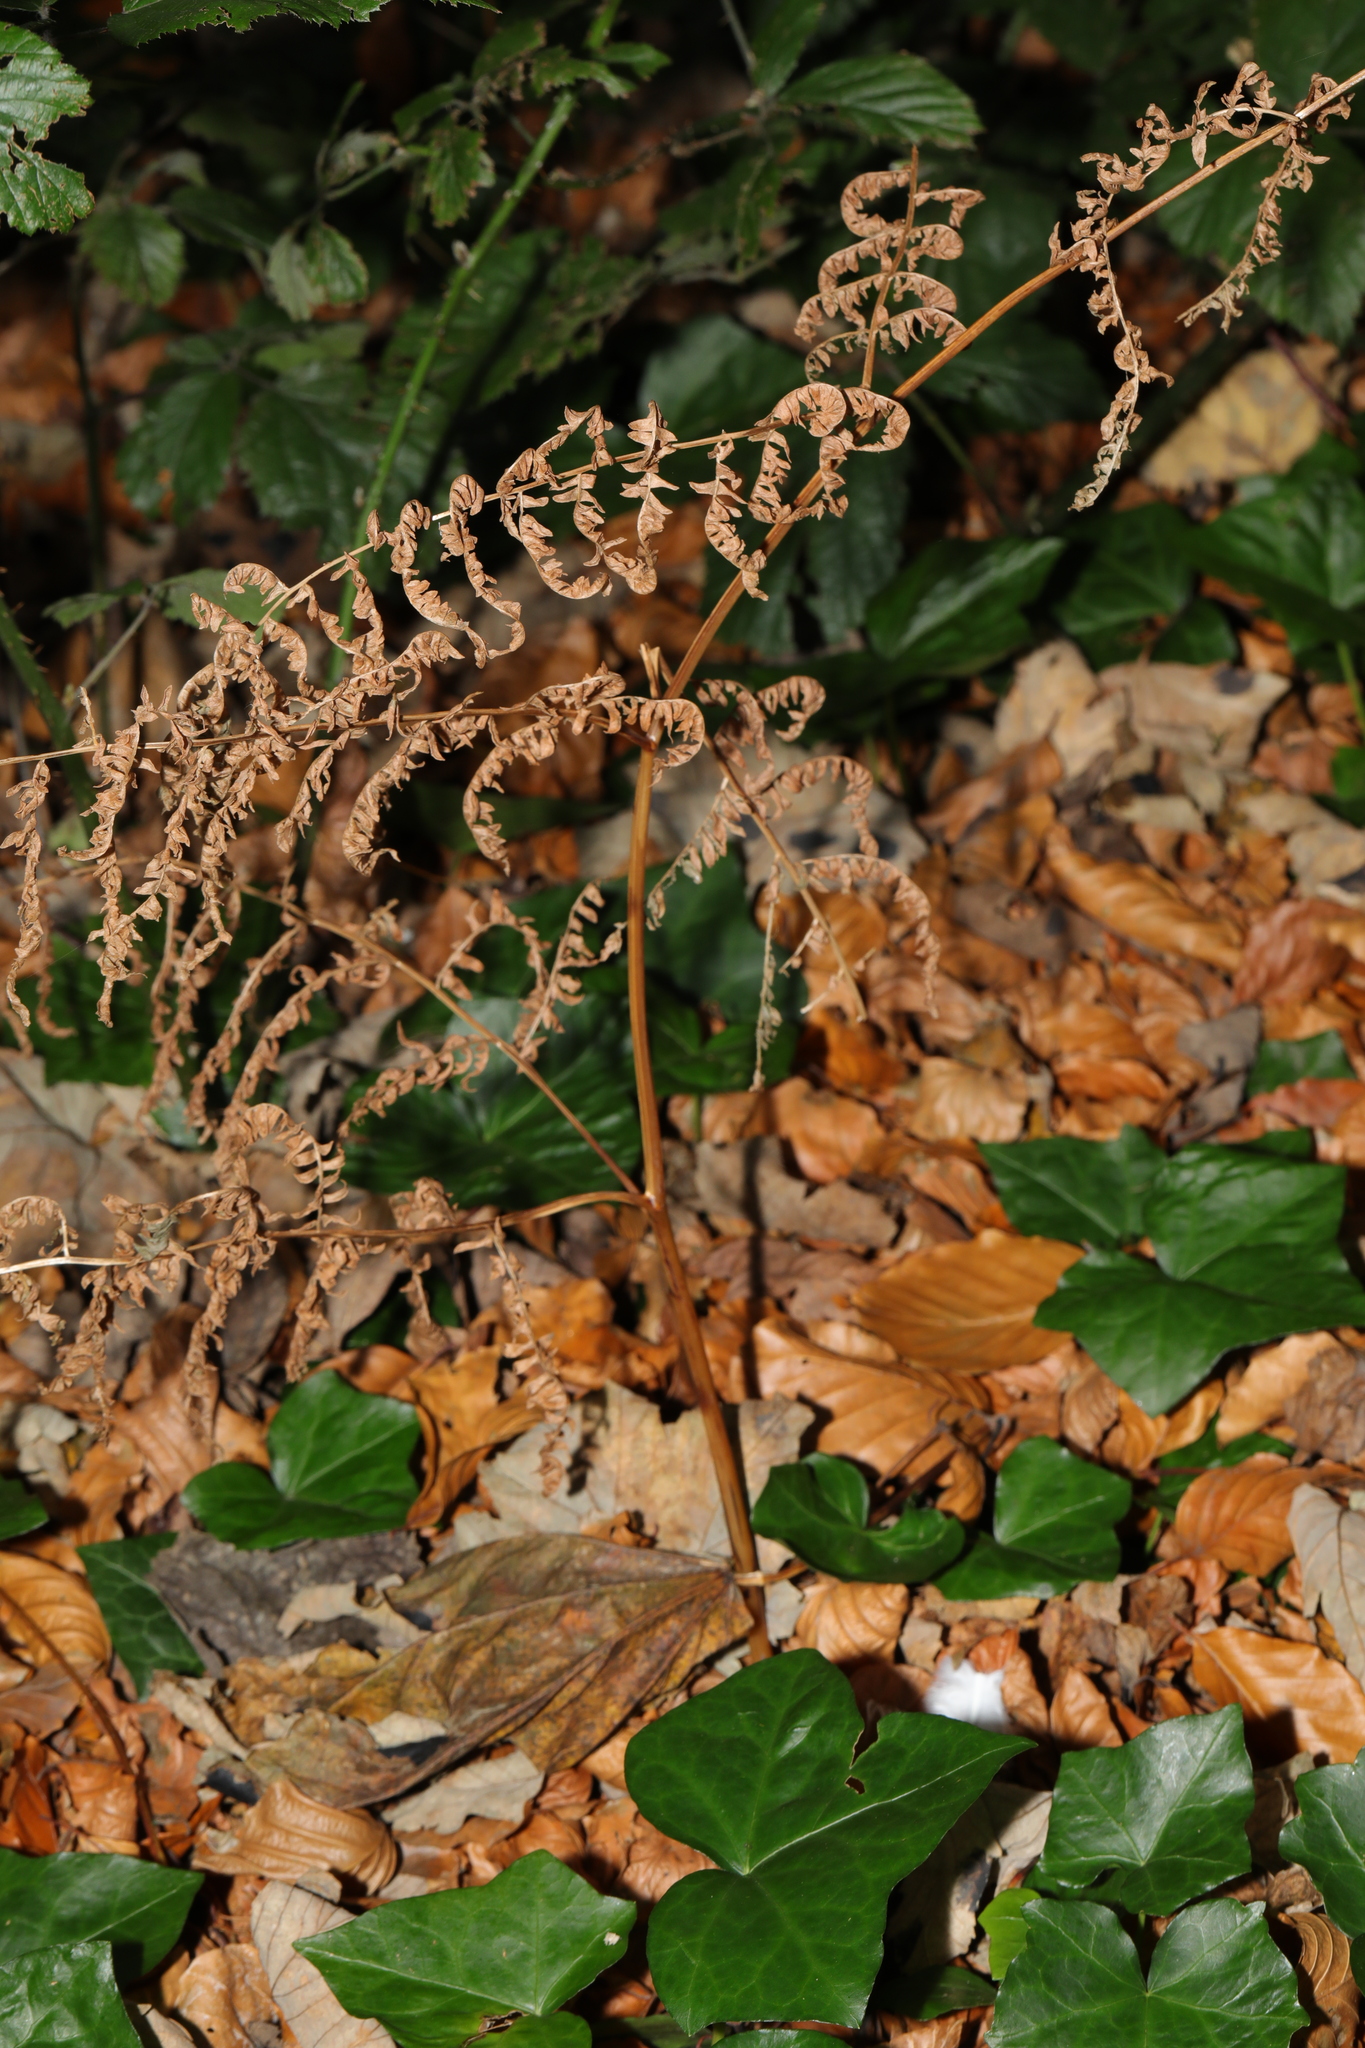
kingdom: Plantae
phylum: Tracheophyta
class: Polypodiopsida
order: Polypodiales
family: Dennstaedtiaceae
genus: Pteridium
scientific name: Pteridium aquilinum
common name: Bracken
